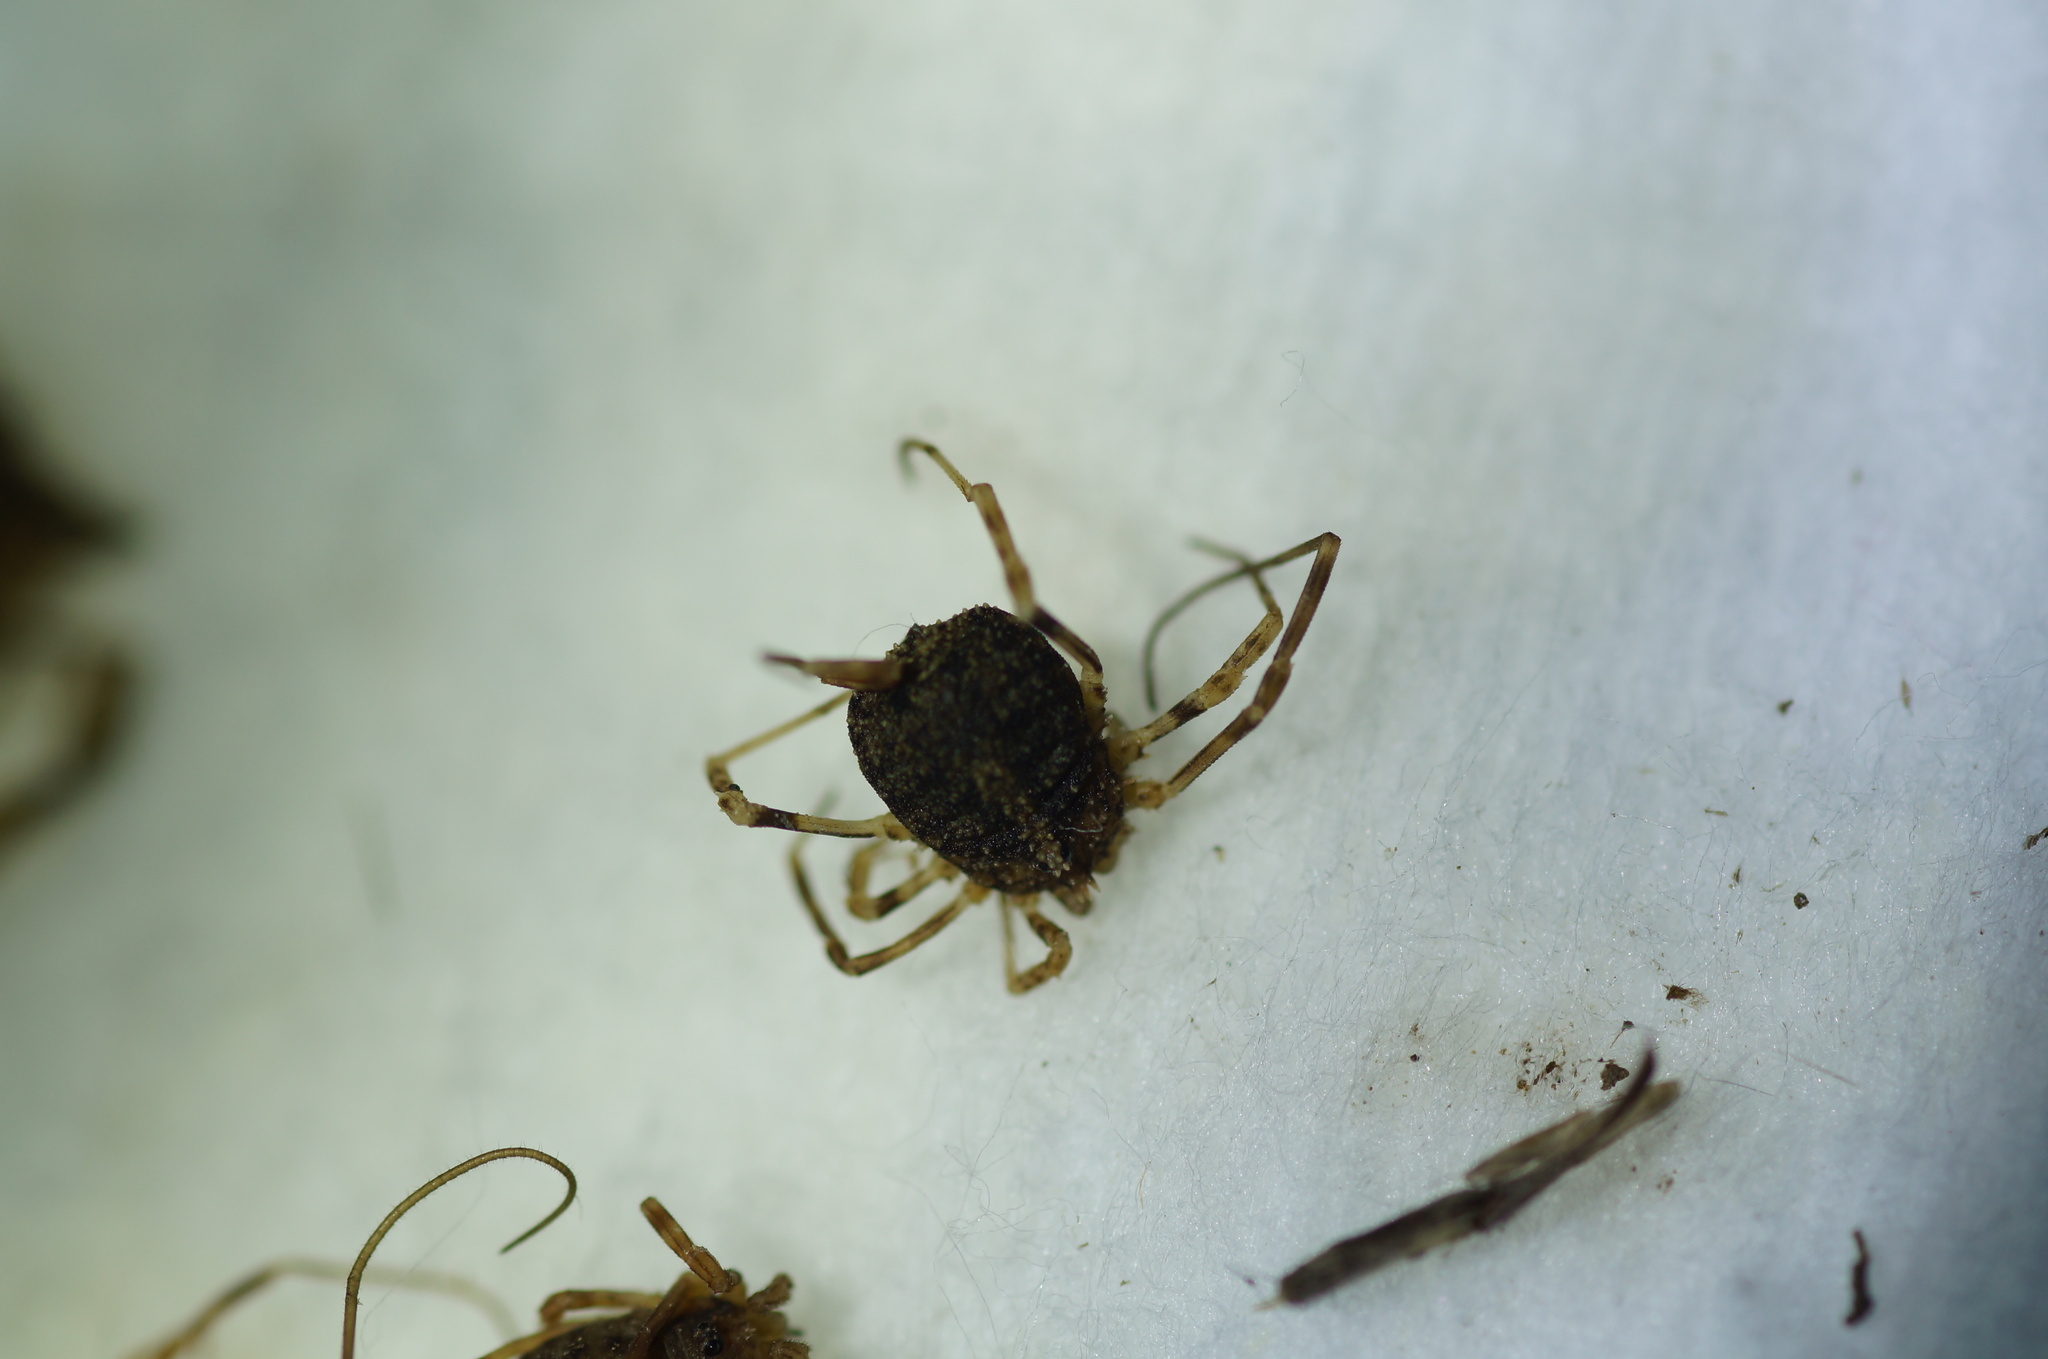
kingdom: Animalia
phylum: Arthropoda
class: Arachnida
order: Opiliones
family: Phalangiidae
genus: Odiellus
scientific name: Odiellus lendlii
